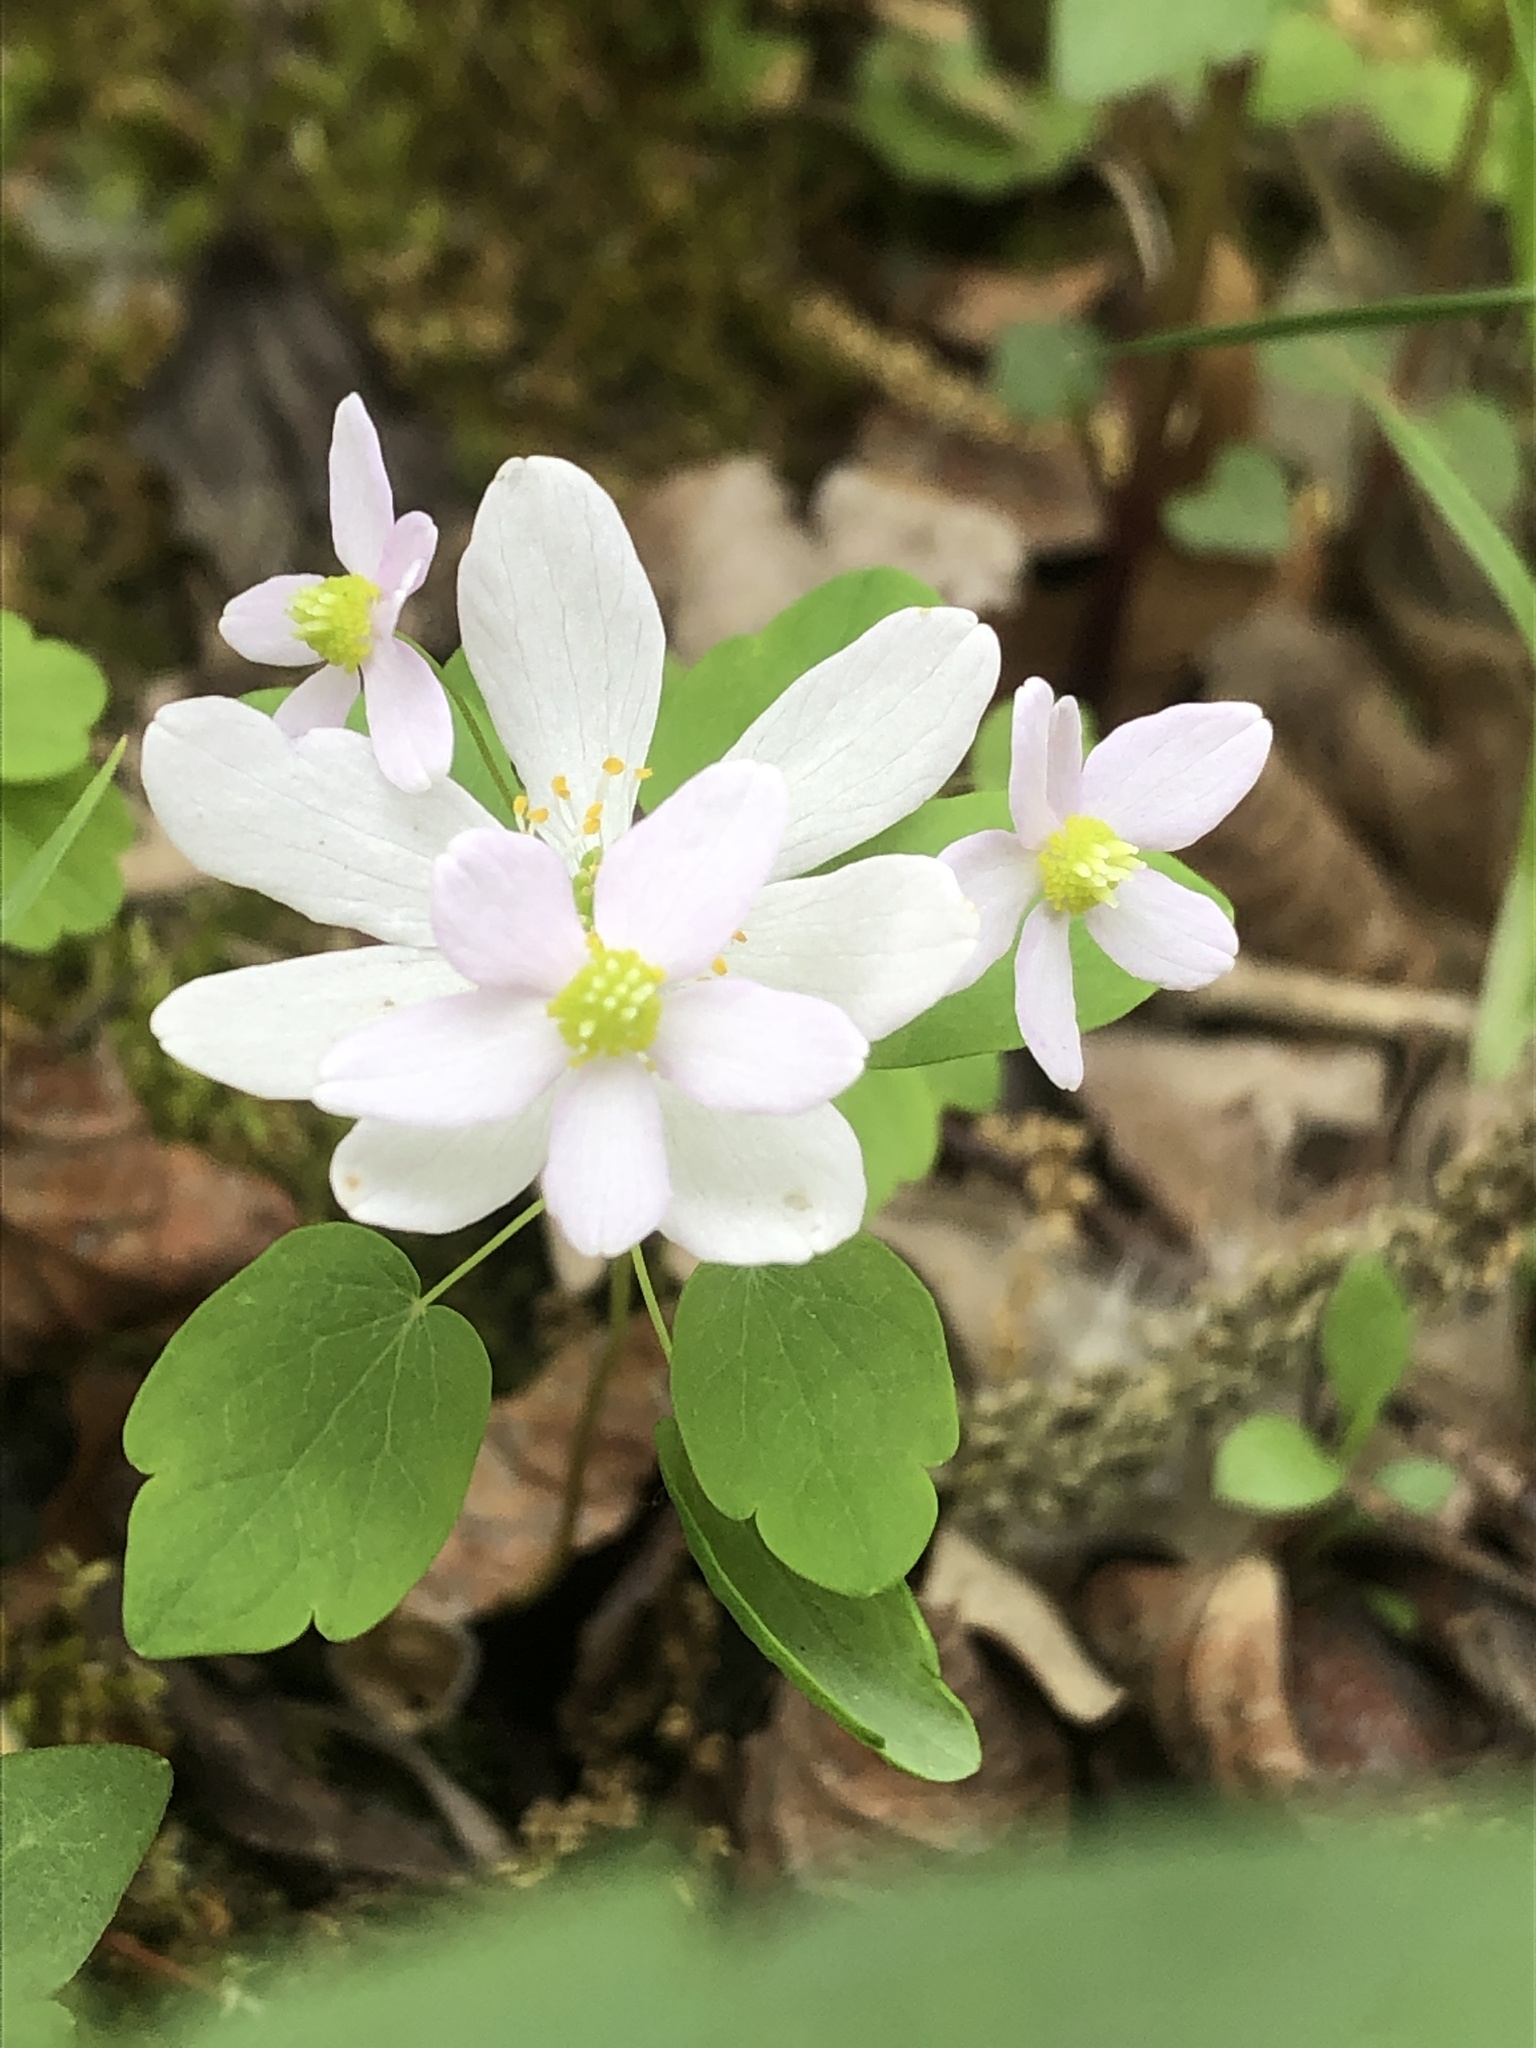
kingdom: Plantae
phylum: Tracheophyta
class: Magnoliopsida
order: Ranunculales
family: Ranunculaceae
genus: Thalictrum
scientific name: Thalictrum thalictroides
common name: Rue-anemone
